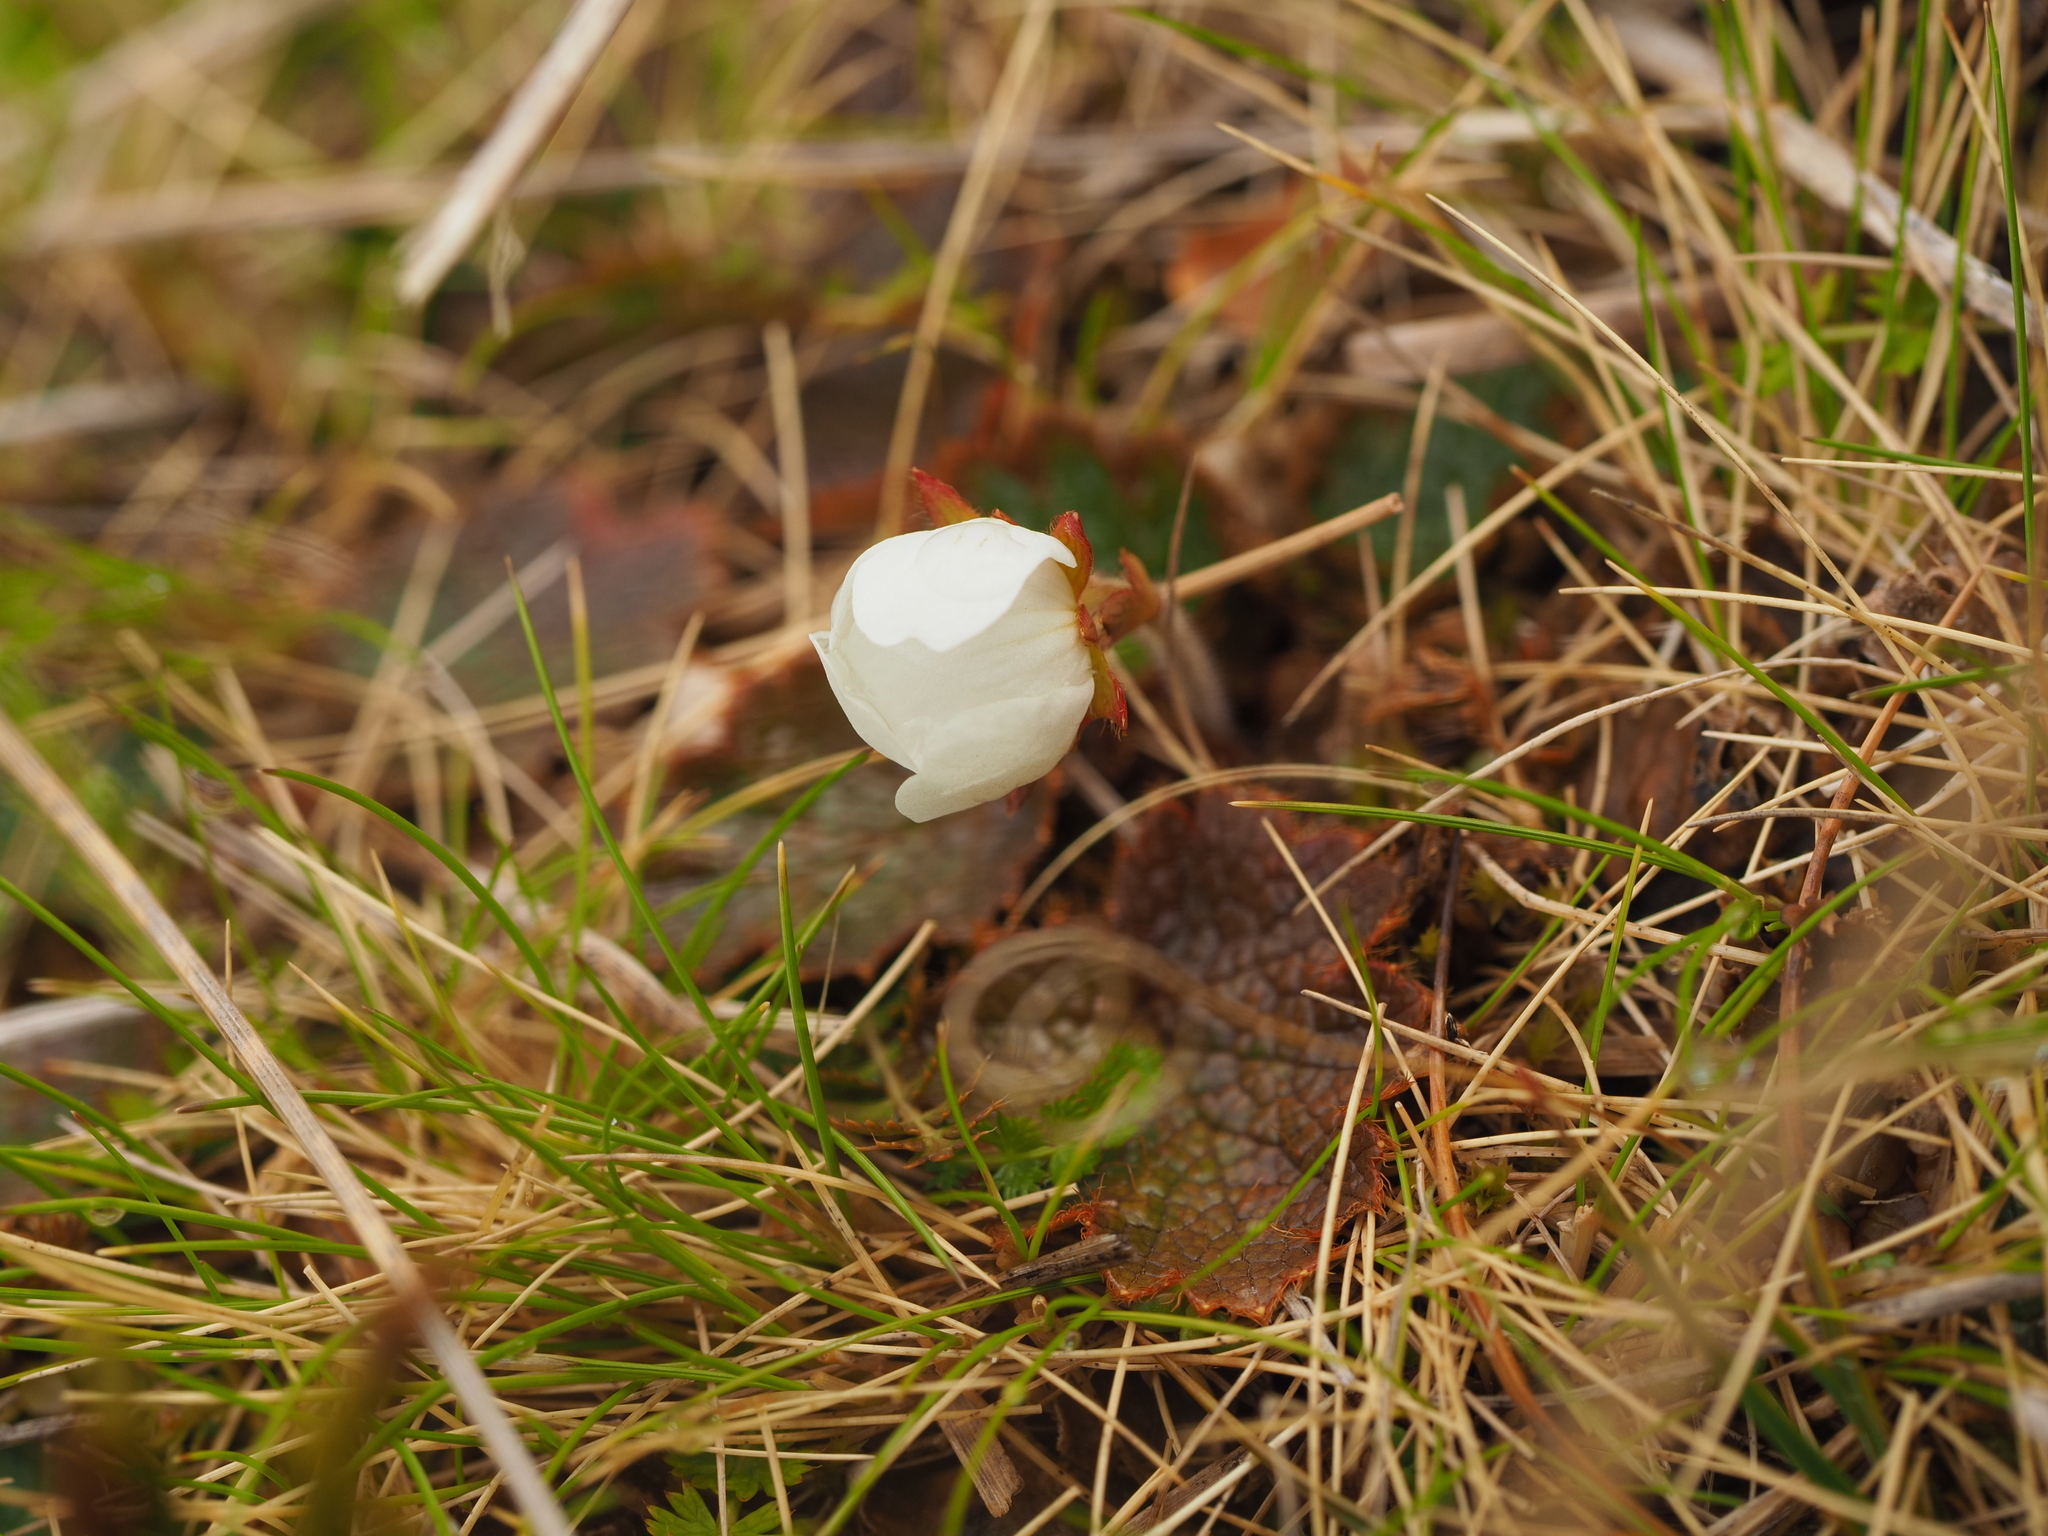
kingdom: Plantae
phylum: Tracheophyta
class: Magnoliopsida
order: Rosales
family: Rosaceae
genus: Geum
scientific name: Geum uniflorum
